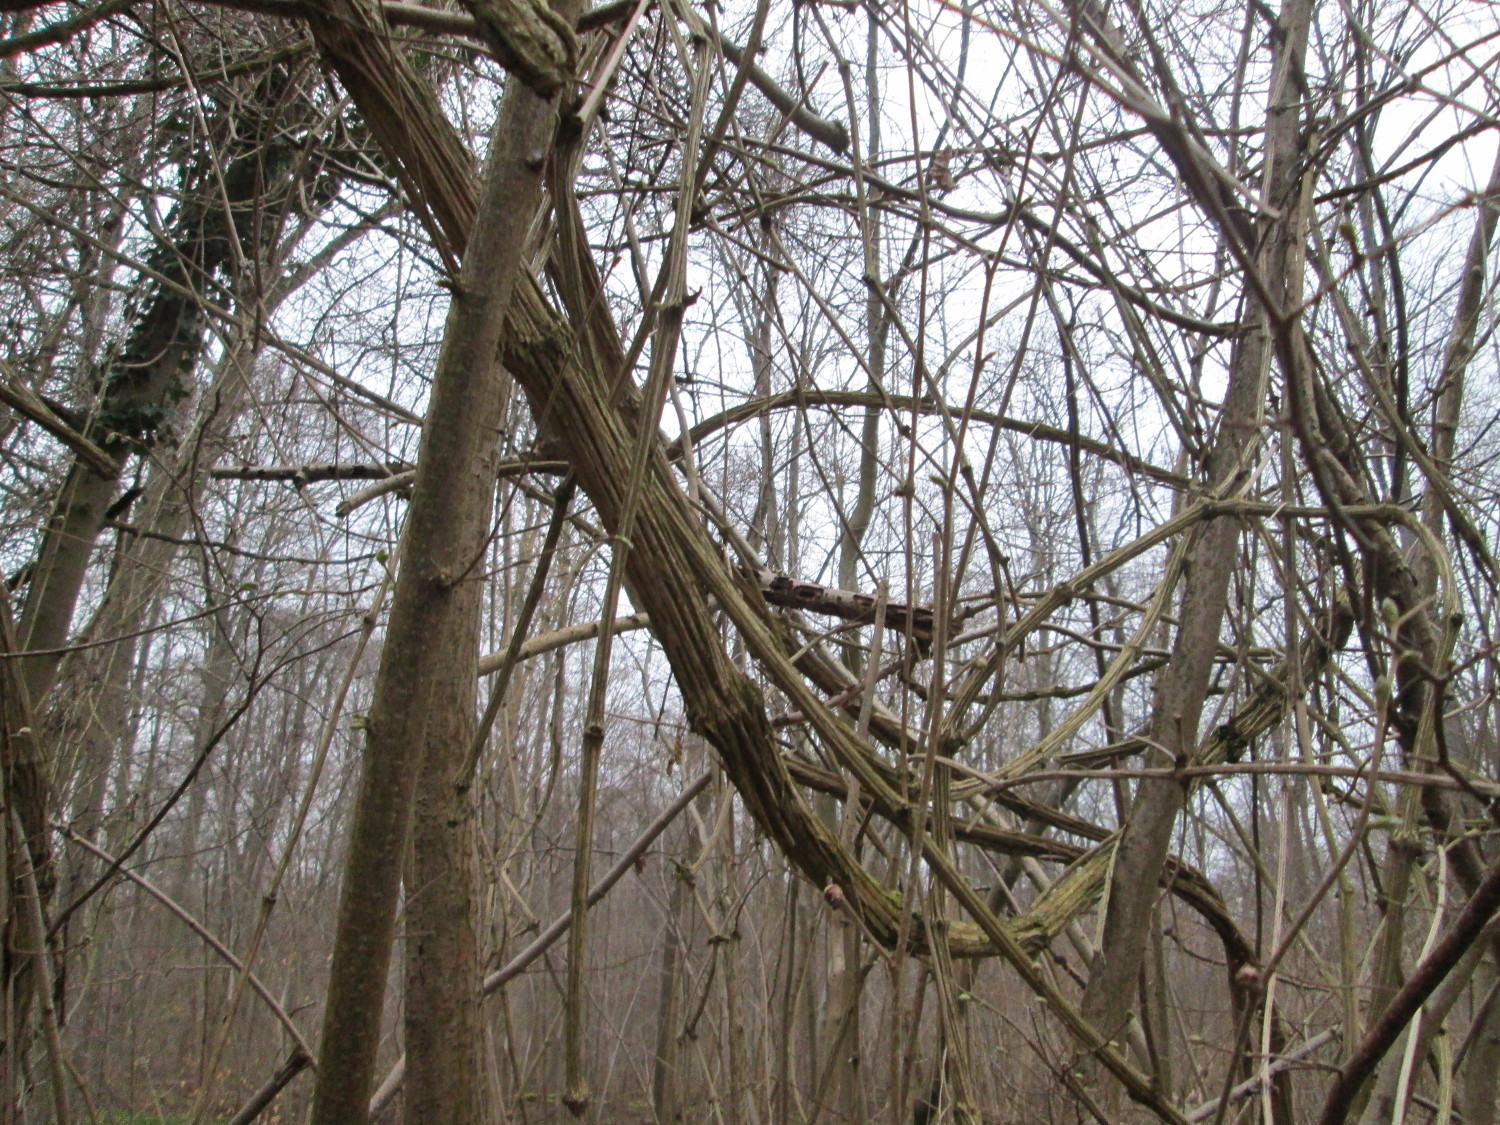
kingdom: Plantae
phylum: Tracheophyta
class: Magnoliopsida
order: Ranunculales
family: Ranunculaceae
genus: Clematis
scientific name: Clematis vitalba
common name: Evergreen clematis
